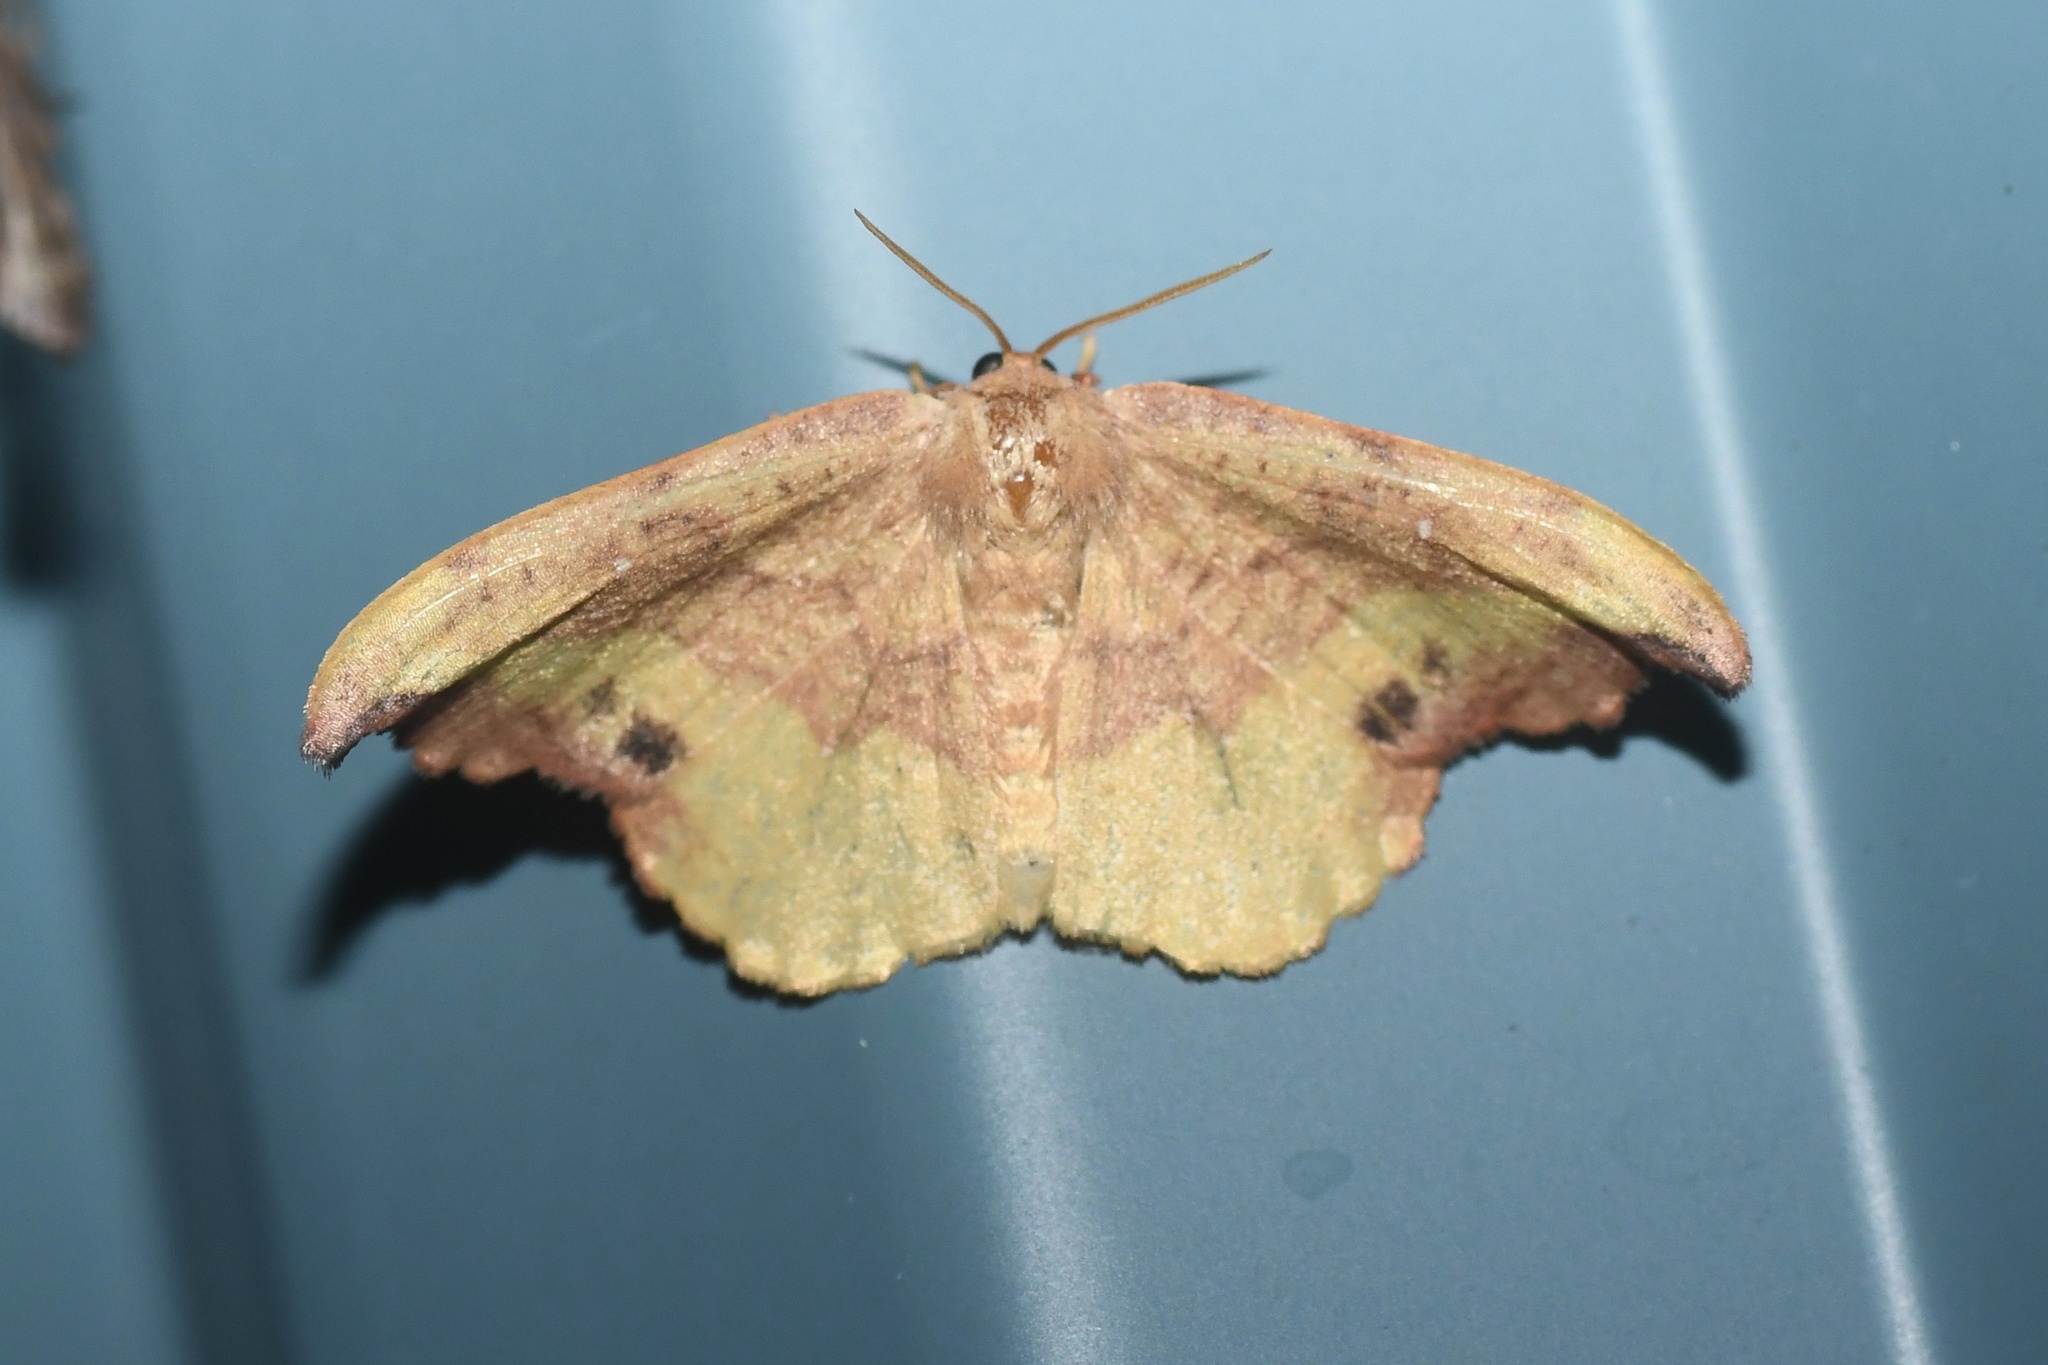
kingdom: Animalia
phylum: Arthropoda
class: Insecta
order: Lepidoptera
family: Drepanidae
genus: Oreta
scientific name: Oreta rosea
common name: Rose hooktip
